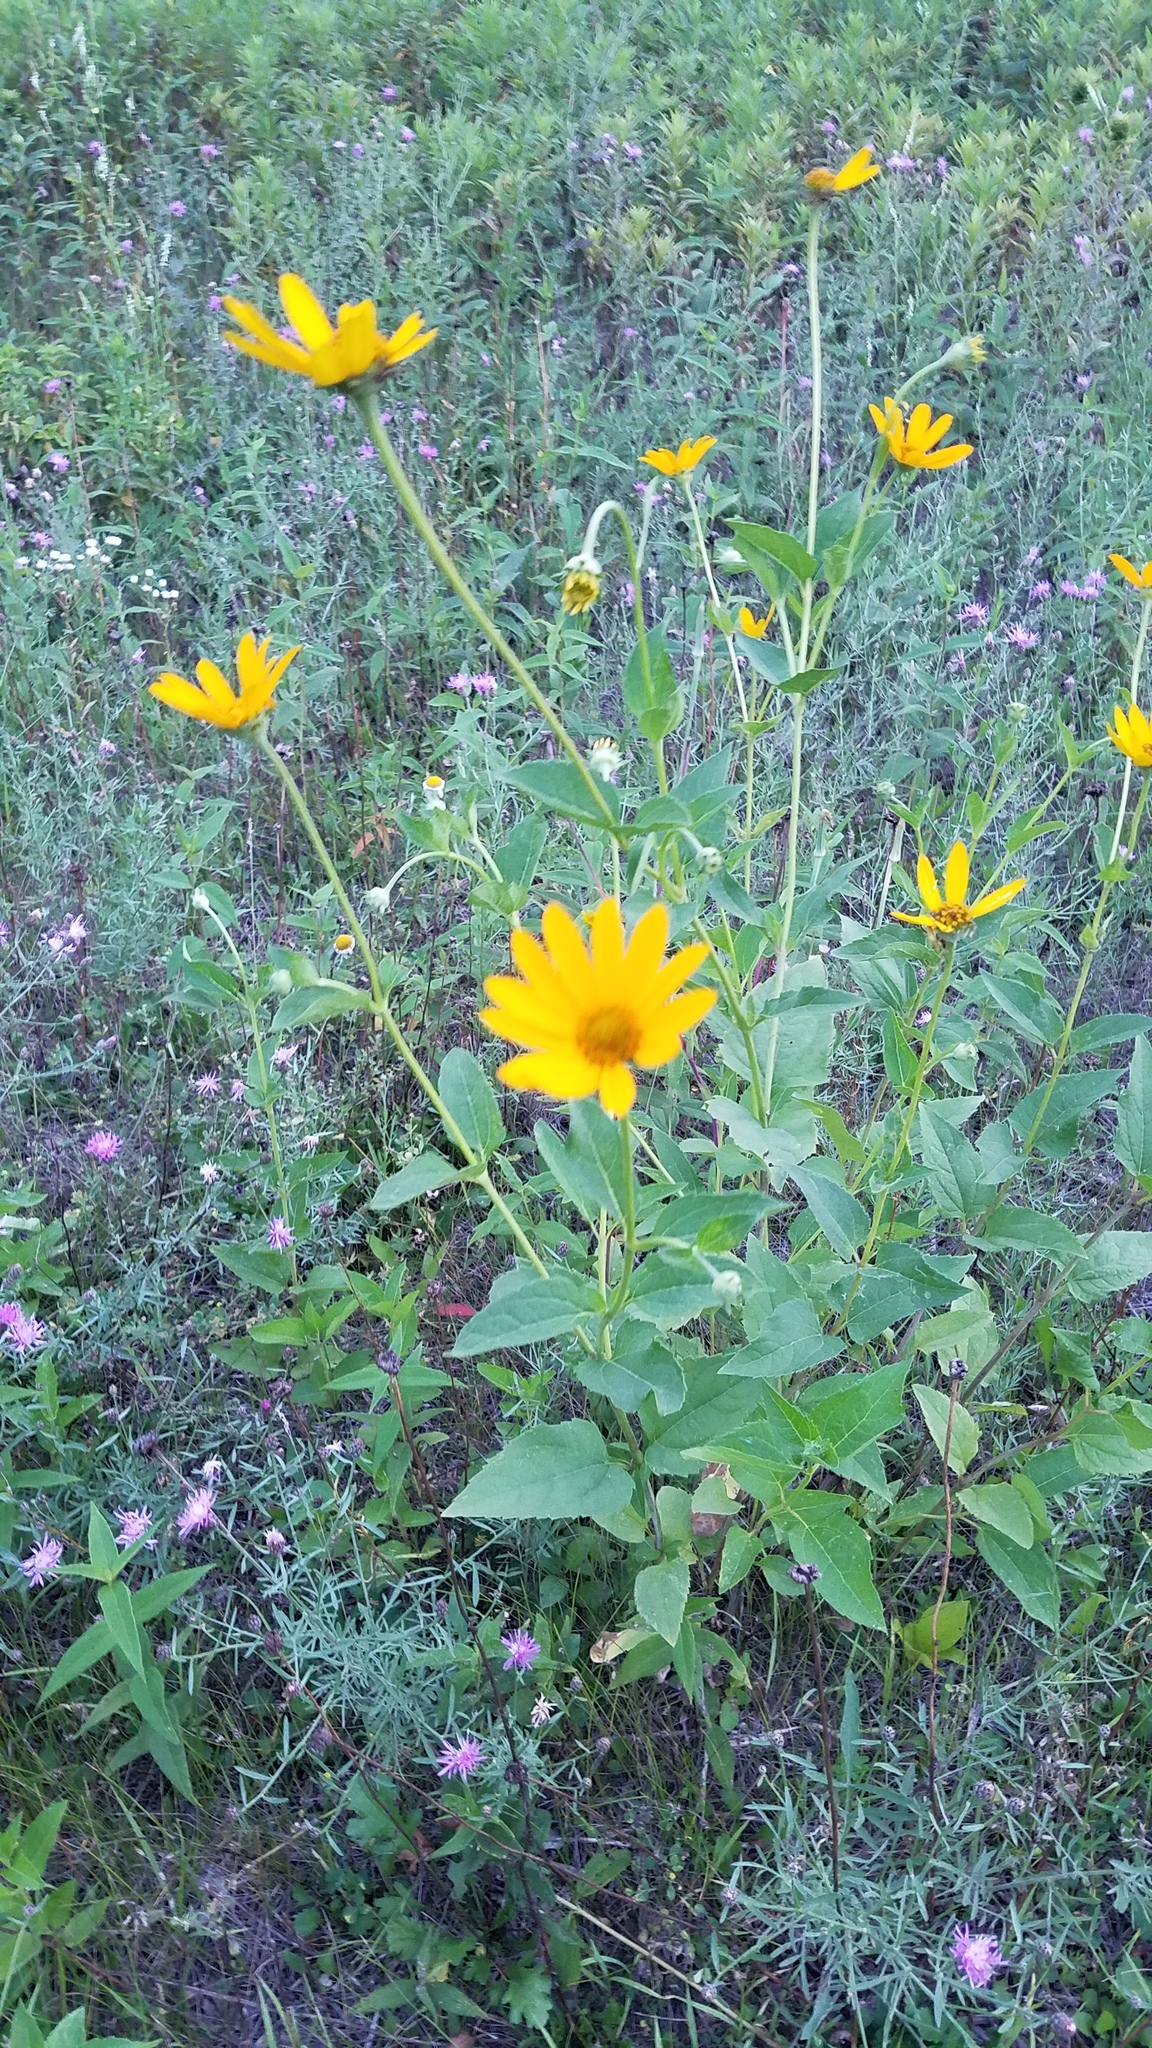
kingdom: Plantae
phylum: Tracheophyta
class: Magnoliopsida
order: Asterales
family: Asteraceae
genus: Heliopsis
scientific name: Heliopsis helianthoides
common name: False sunflower
